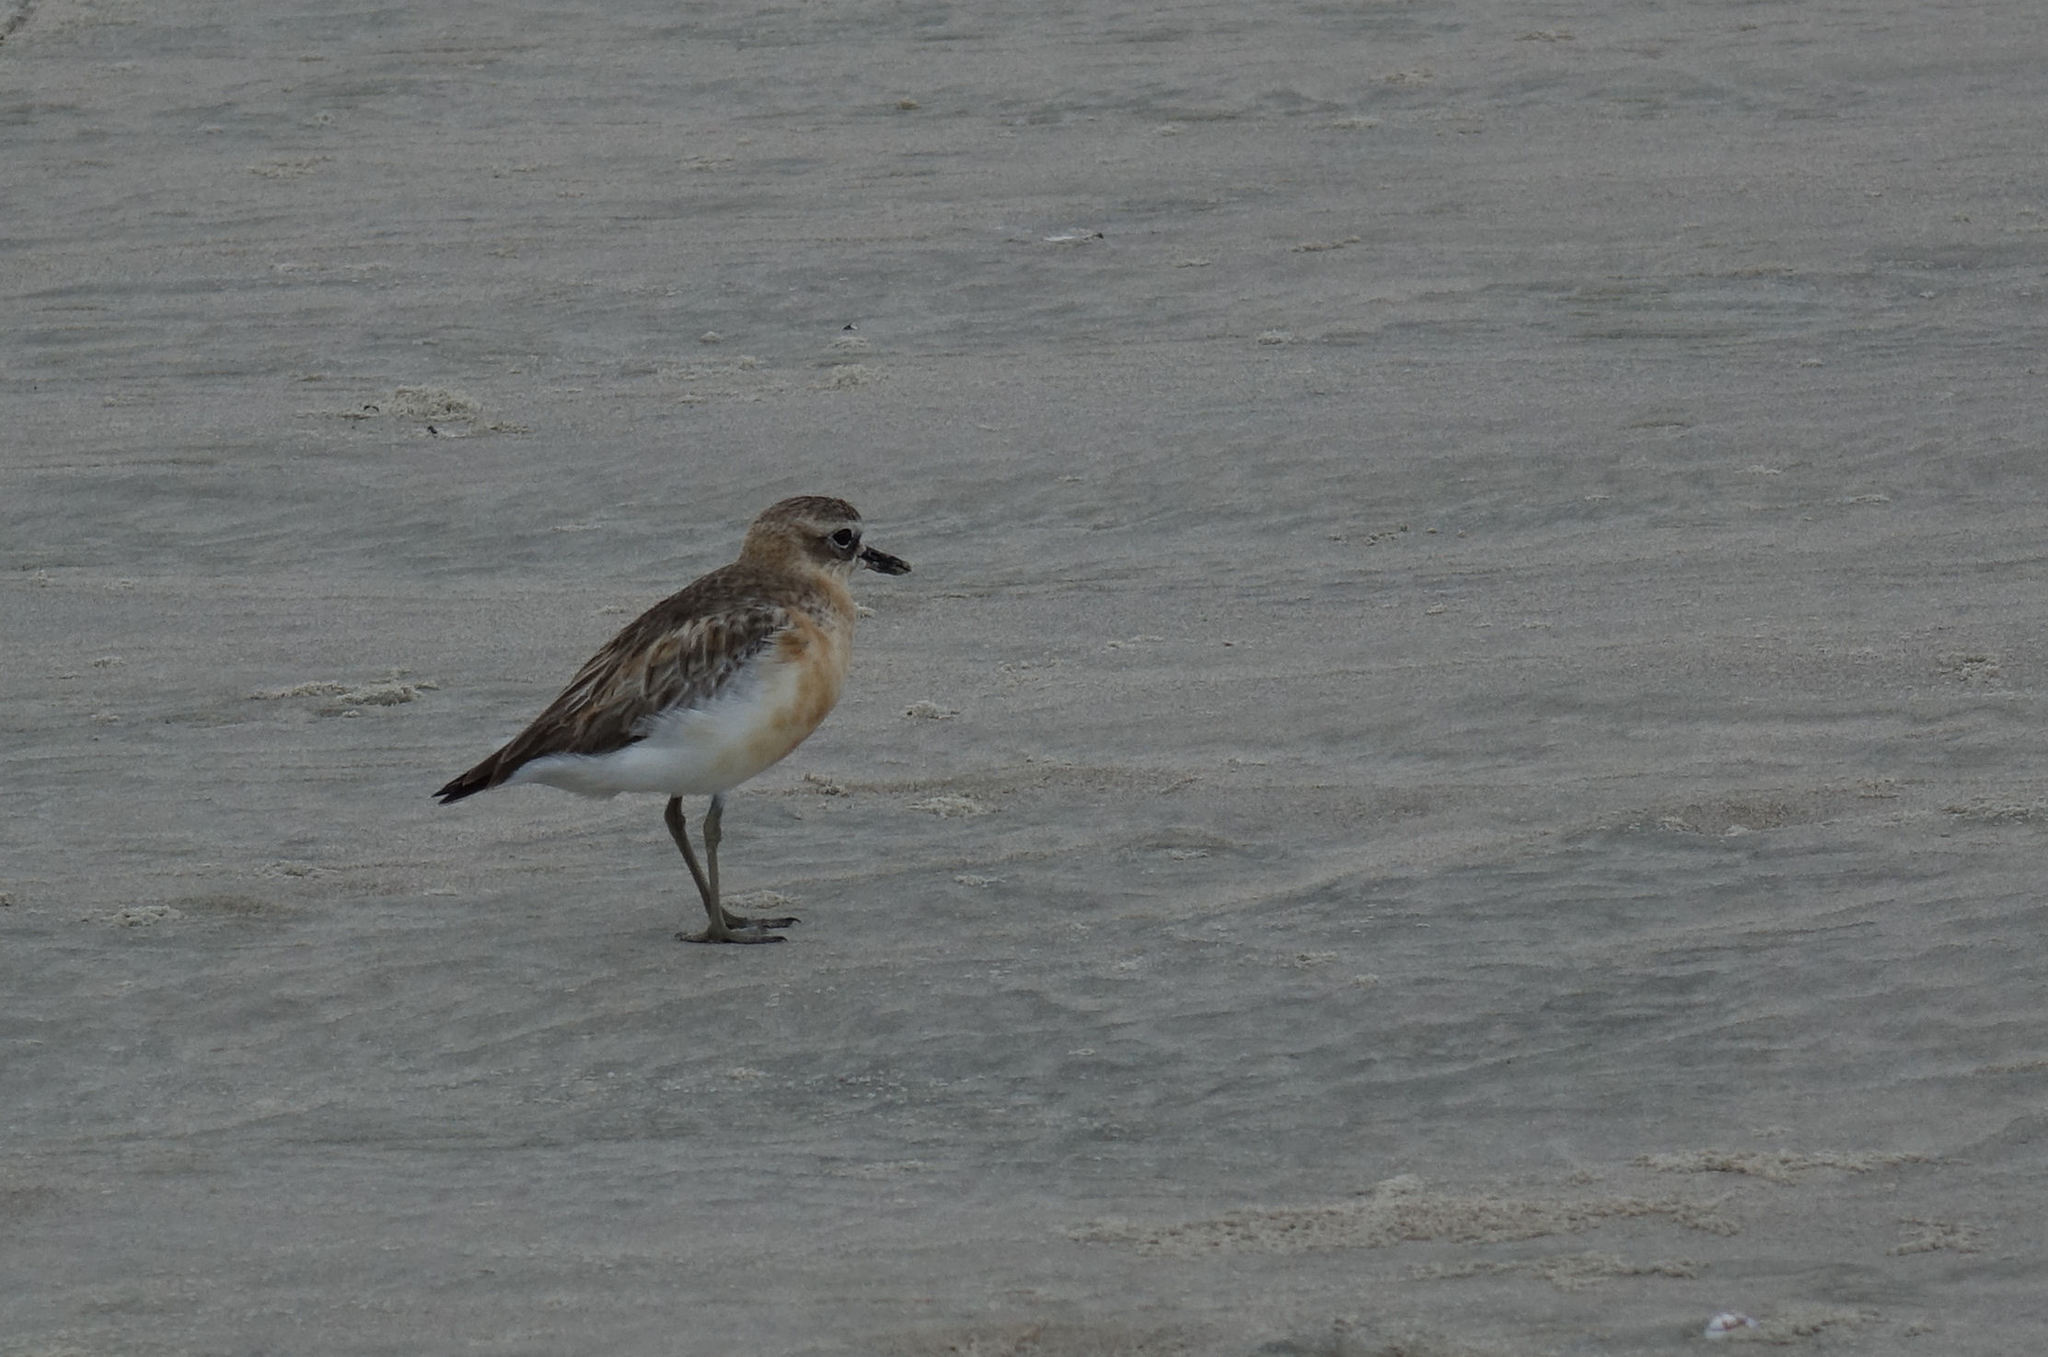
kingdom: Animalia
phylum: Chordata
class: Aves
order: Charadriiformes
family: Charadriidae
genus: Anarhynchus
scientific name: Anarhynchus
